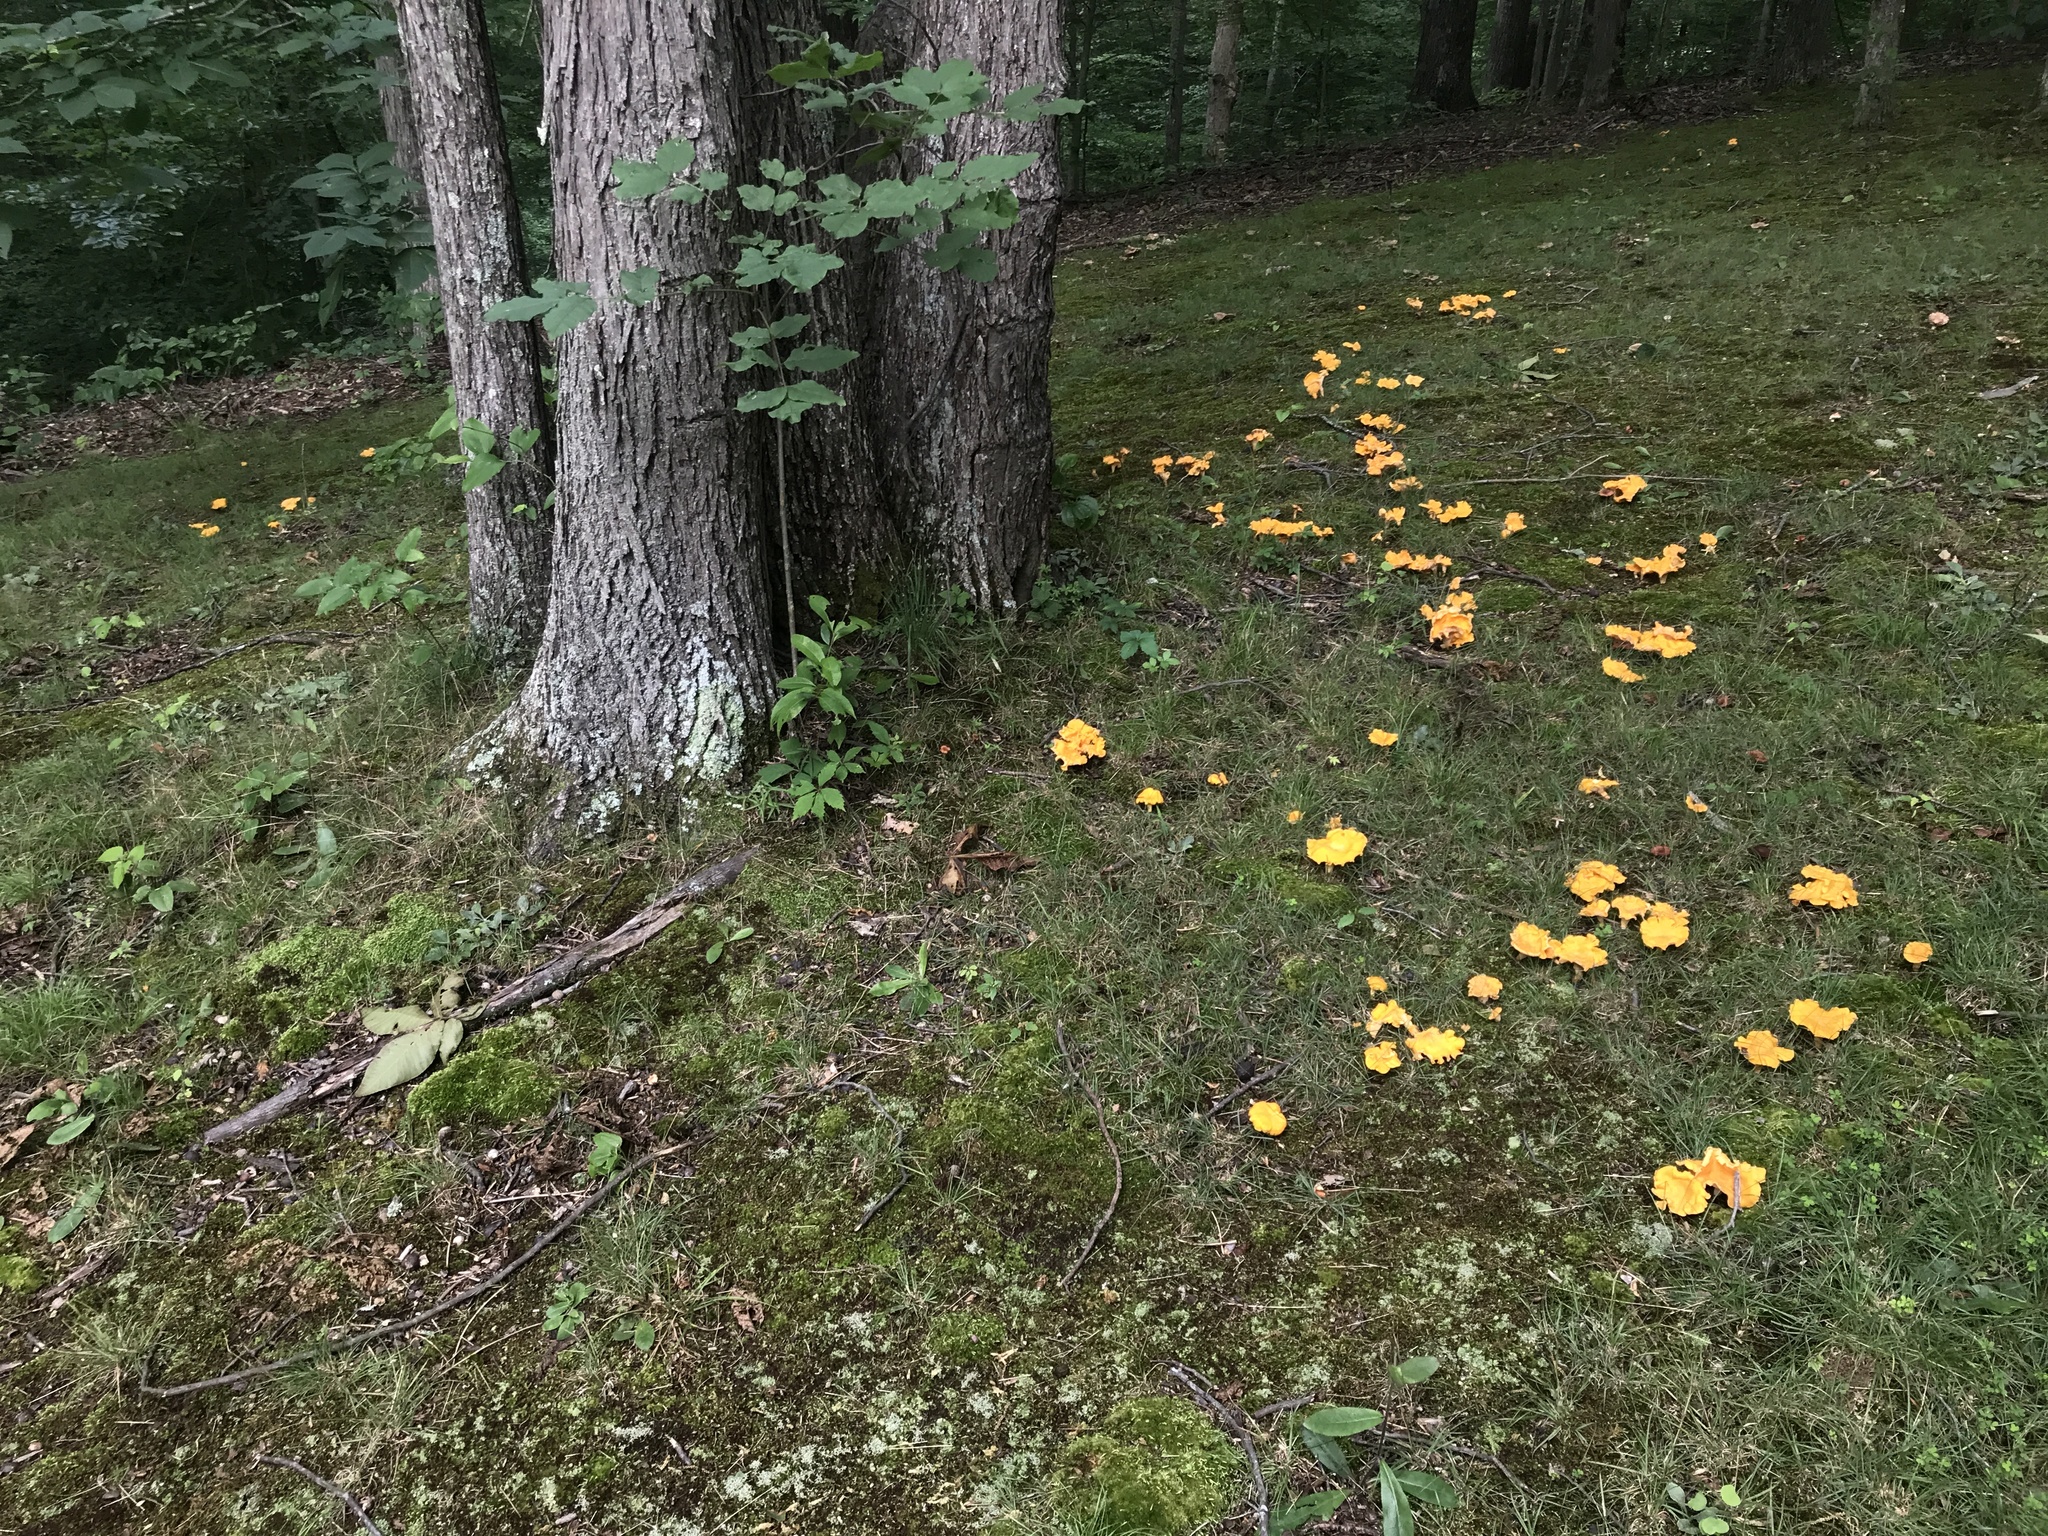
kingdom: Fungi
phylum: Basidiomycota
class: Agaricomycetes
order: Cantharellales
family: Hydnaceae
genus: Cantharellus
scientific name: Cantharellus flavolateritius
